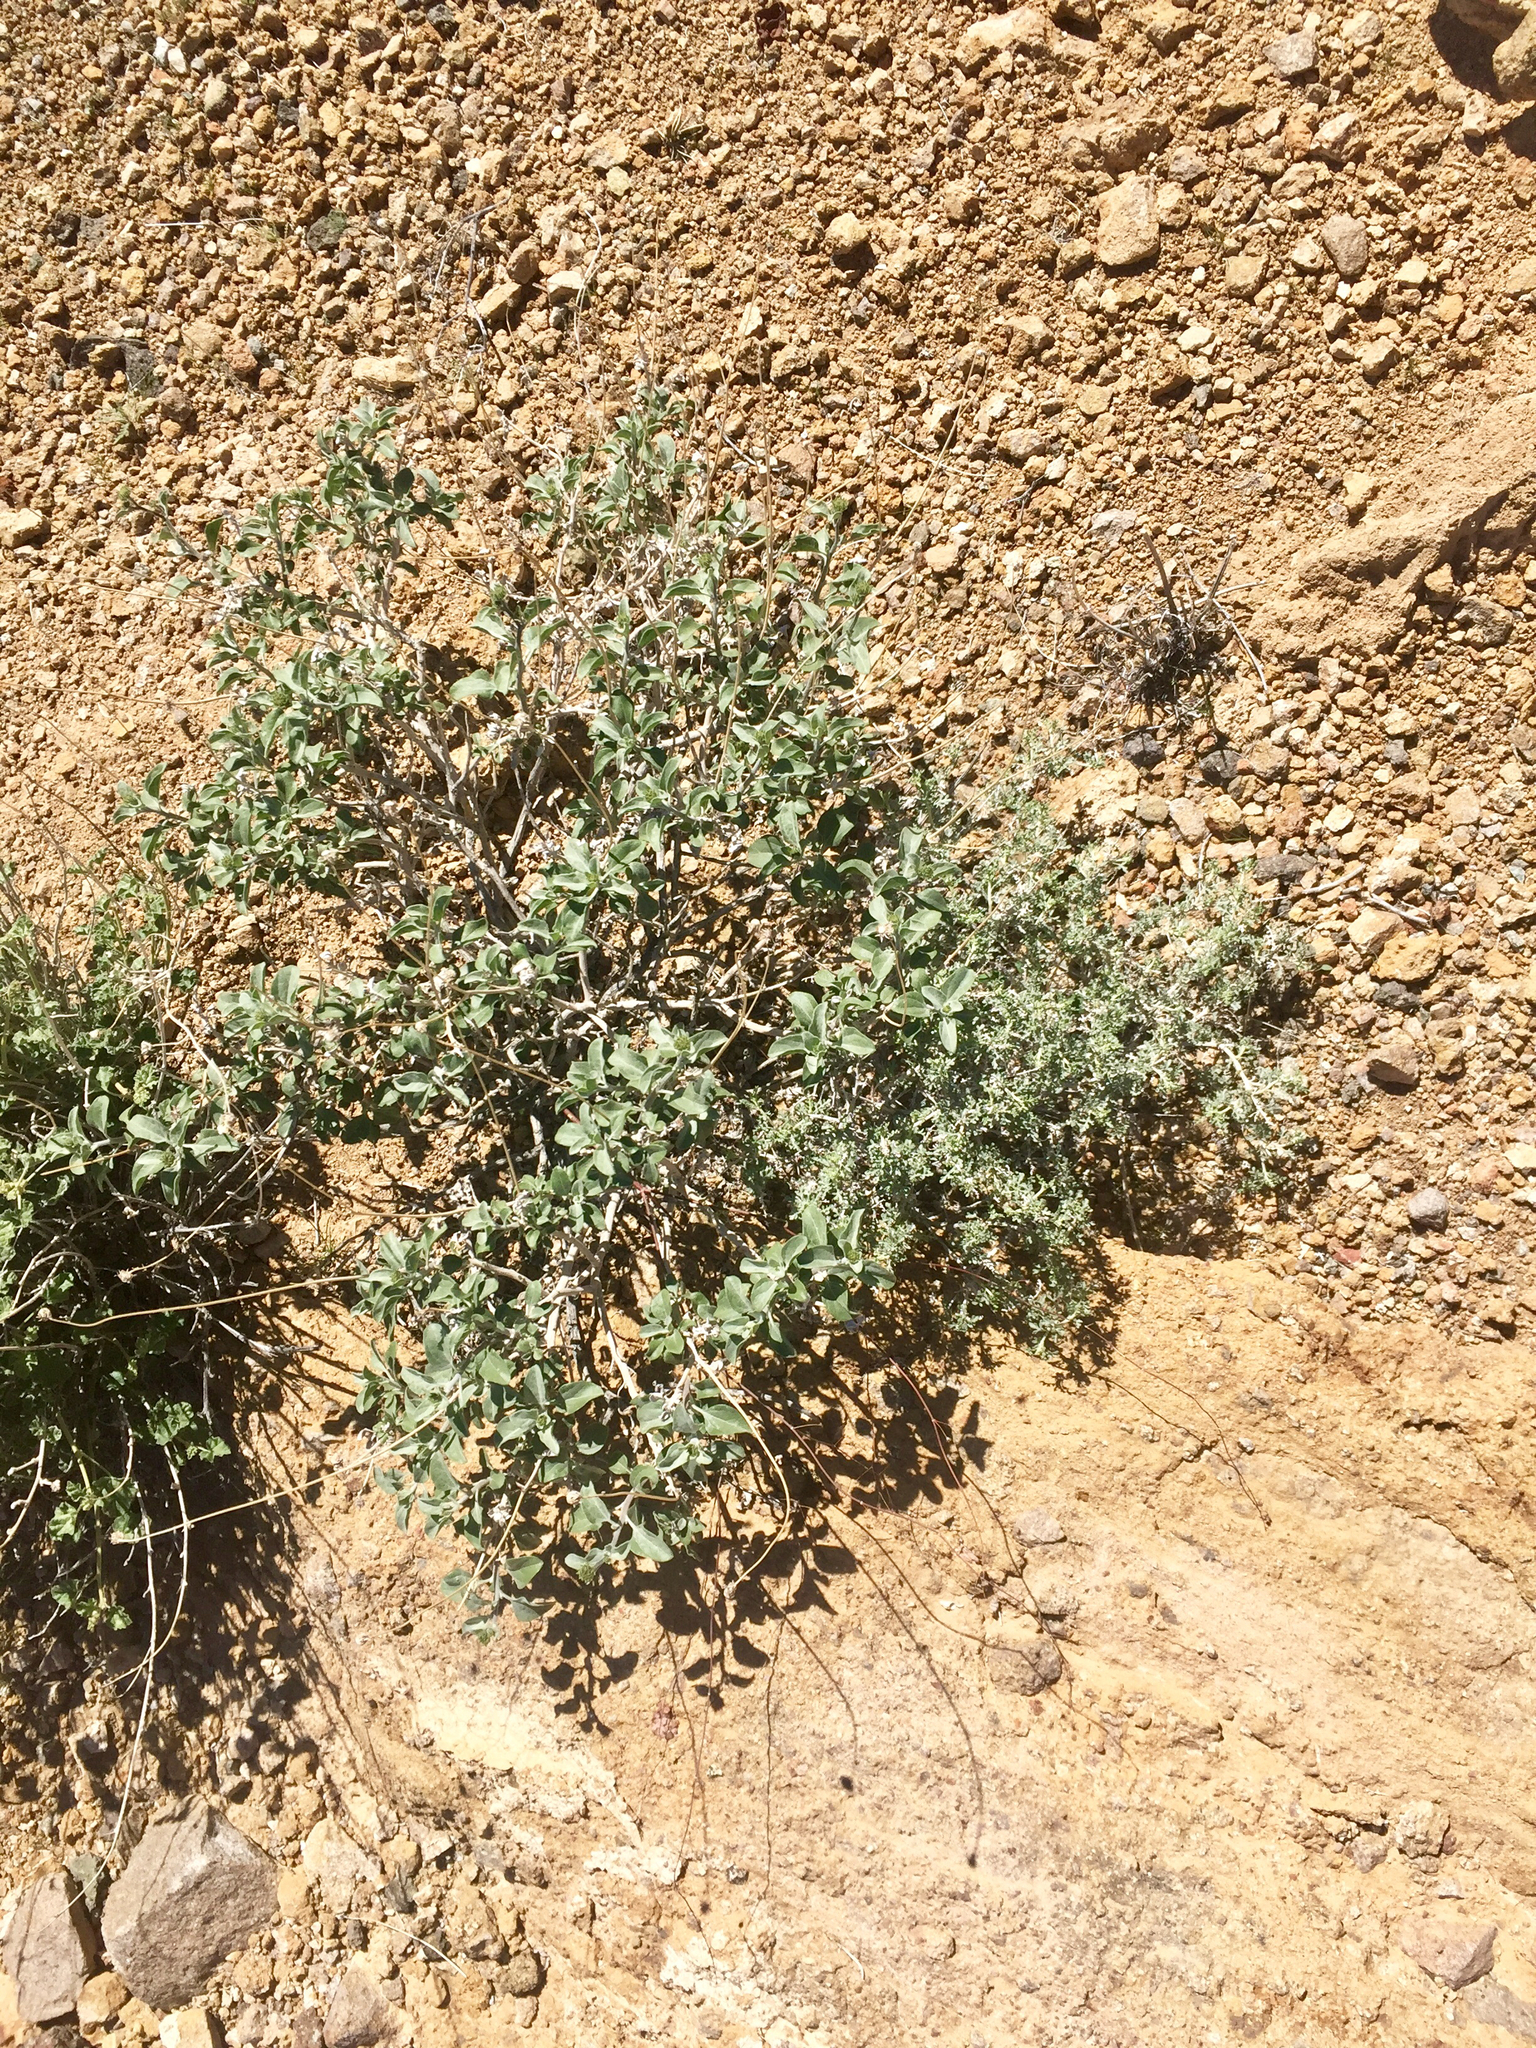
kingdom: Plantae
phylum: Tracheophyta
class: Magnoliopsida
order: Asterales
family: Asteraceae
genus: Encelia
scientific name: Encelia farinosa
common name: Brittlebush
